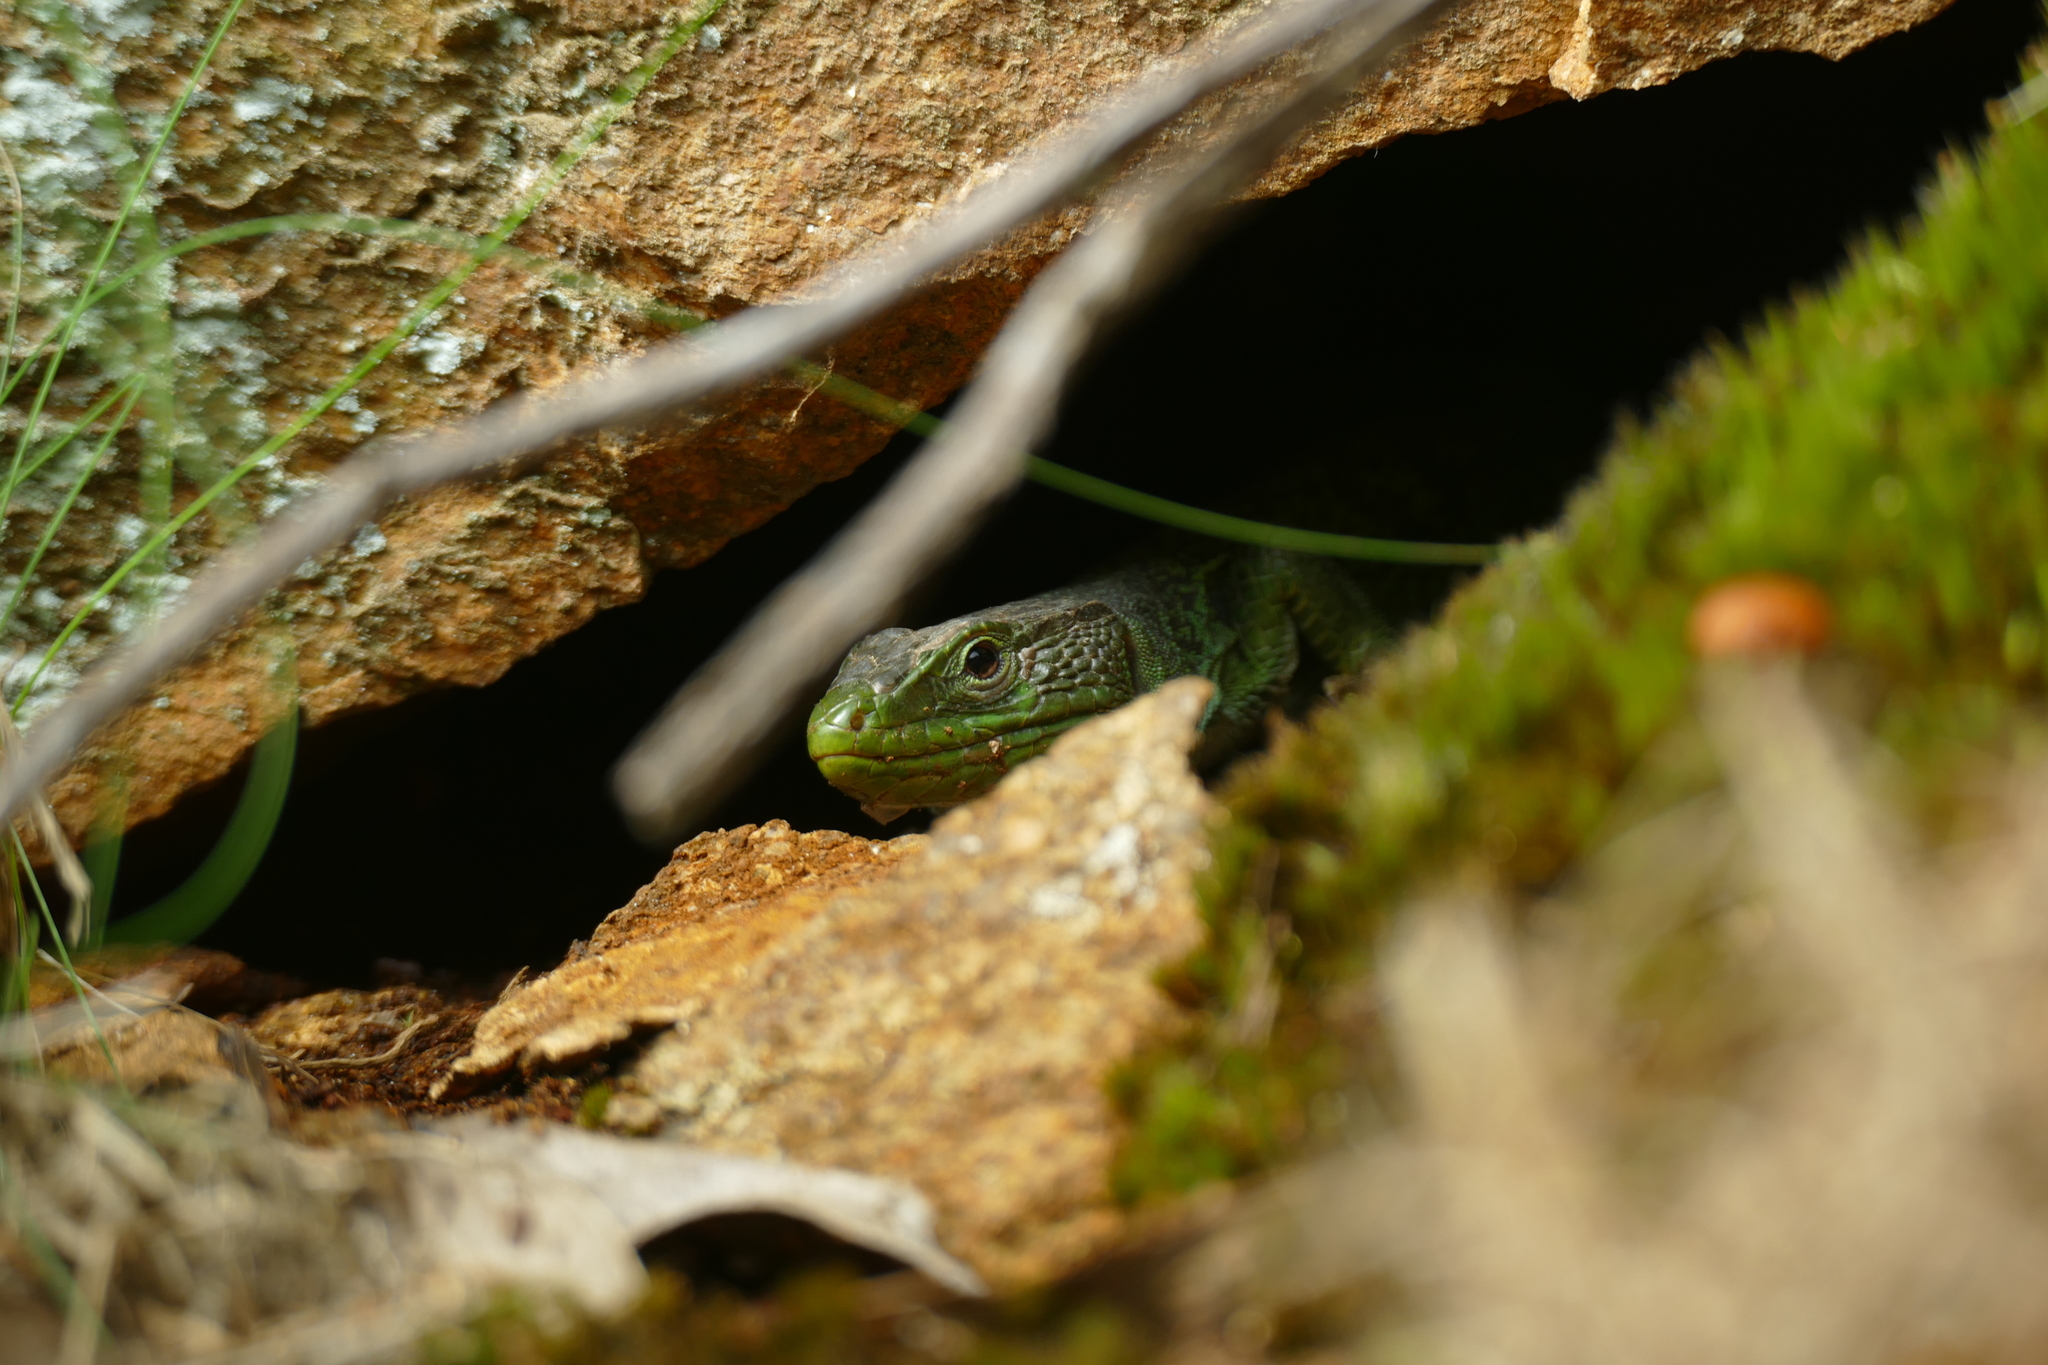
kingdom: Animalia
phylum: Chordata
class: Squamata
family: Lacertidae
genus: Timon
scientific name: Timon lepidus
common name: Ocellated lizard
